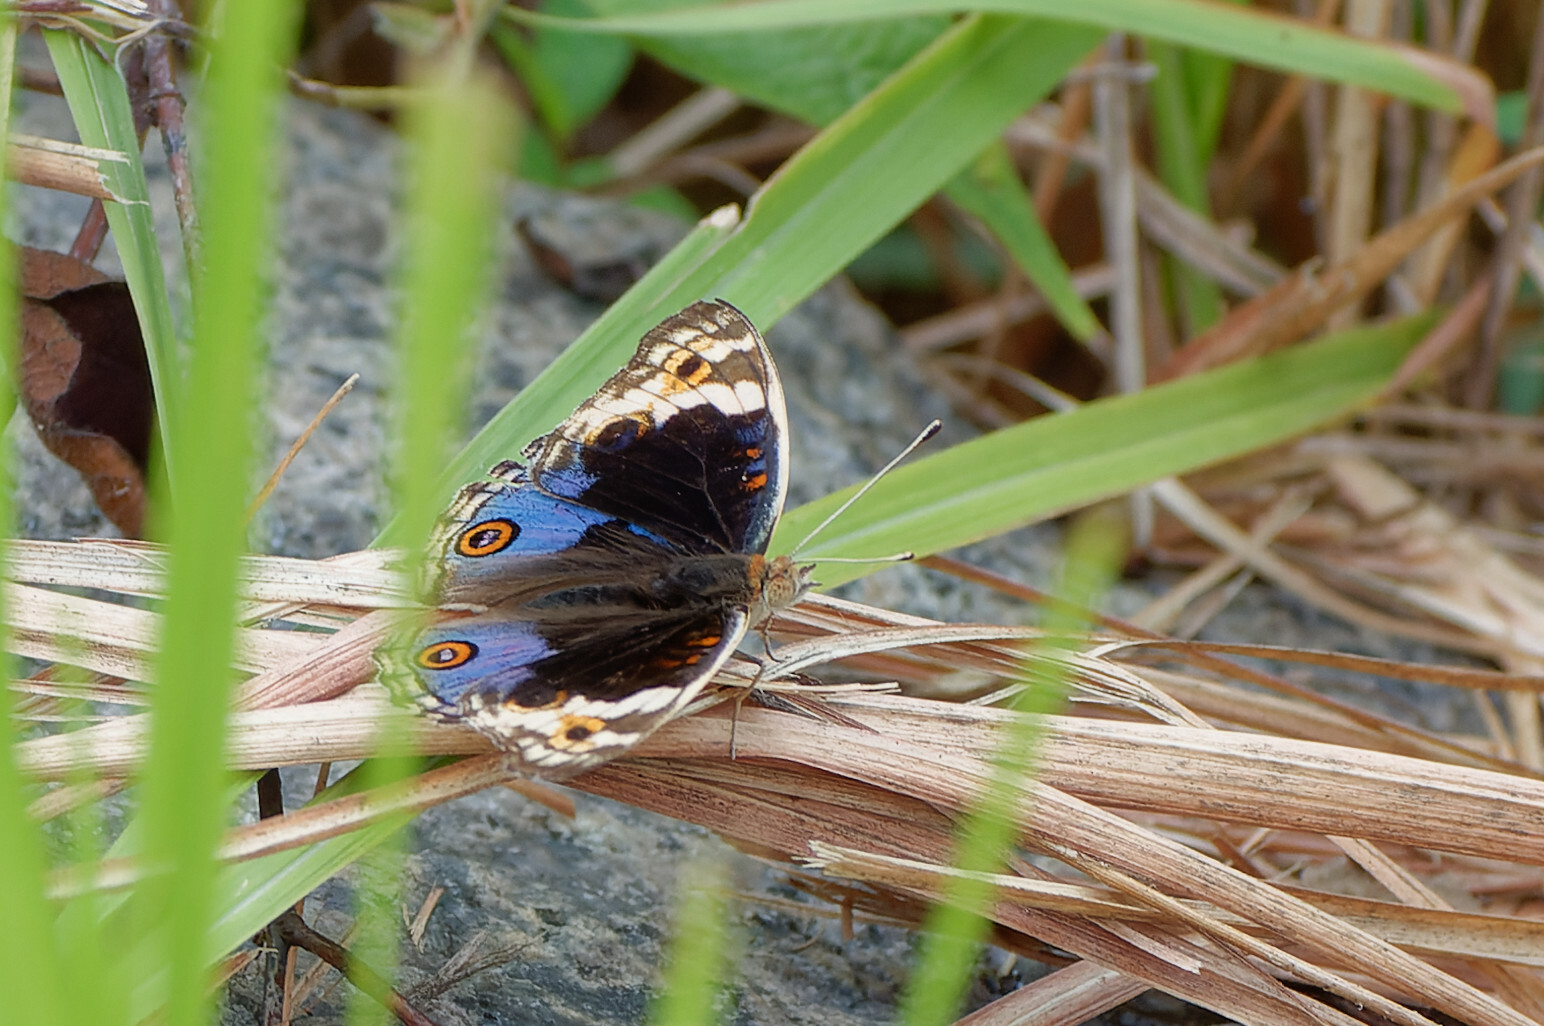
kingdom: Animalia
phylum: Arthropoda
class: Insecta
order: Lepidoptera
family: Nymphalidae
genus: Junonia
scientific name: Junonia orithya
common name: Blue pansy
